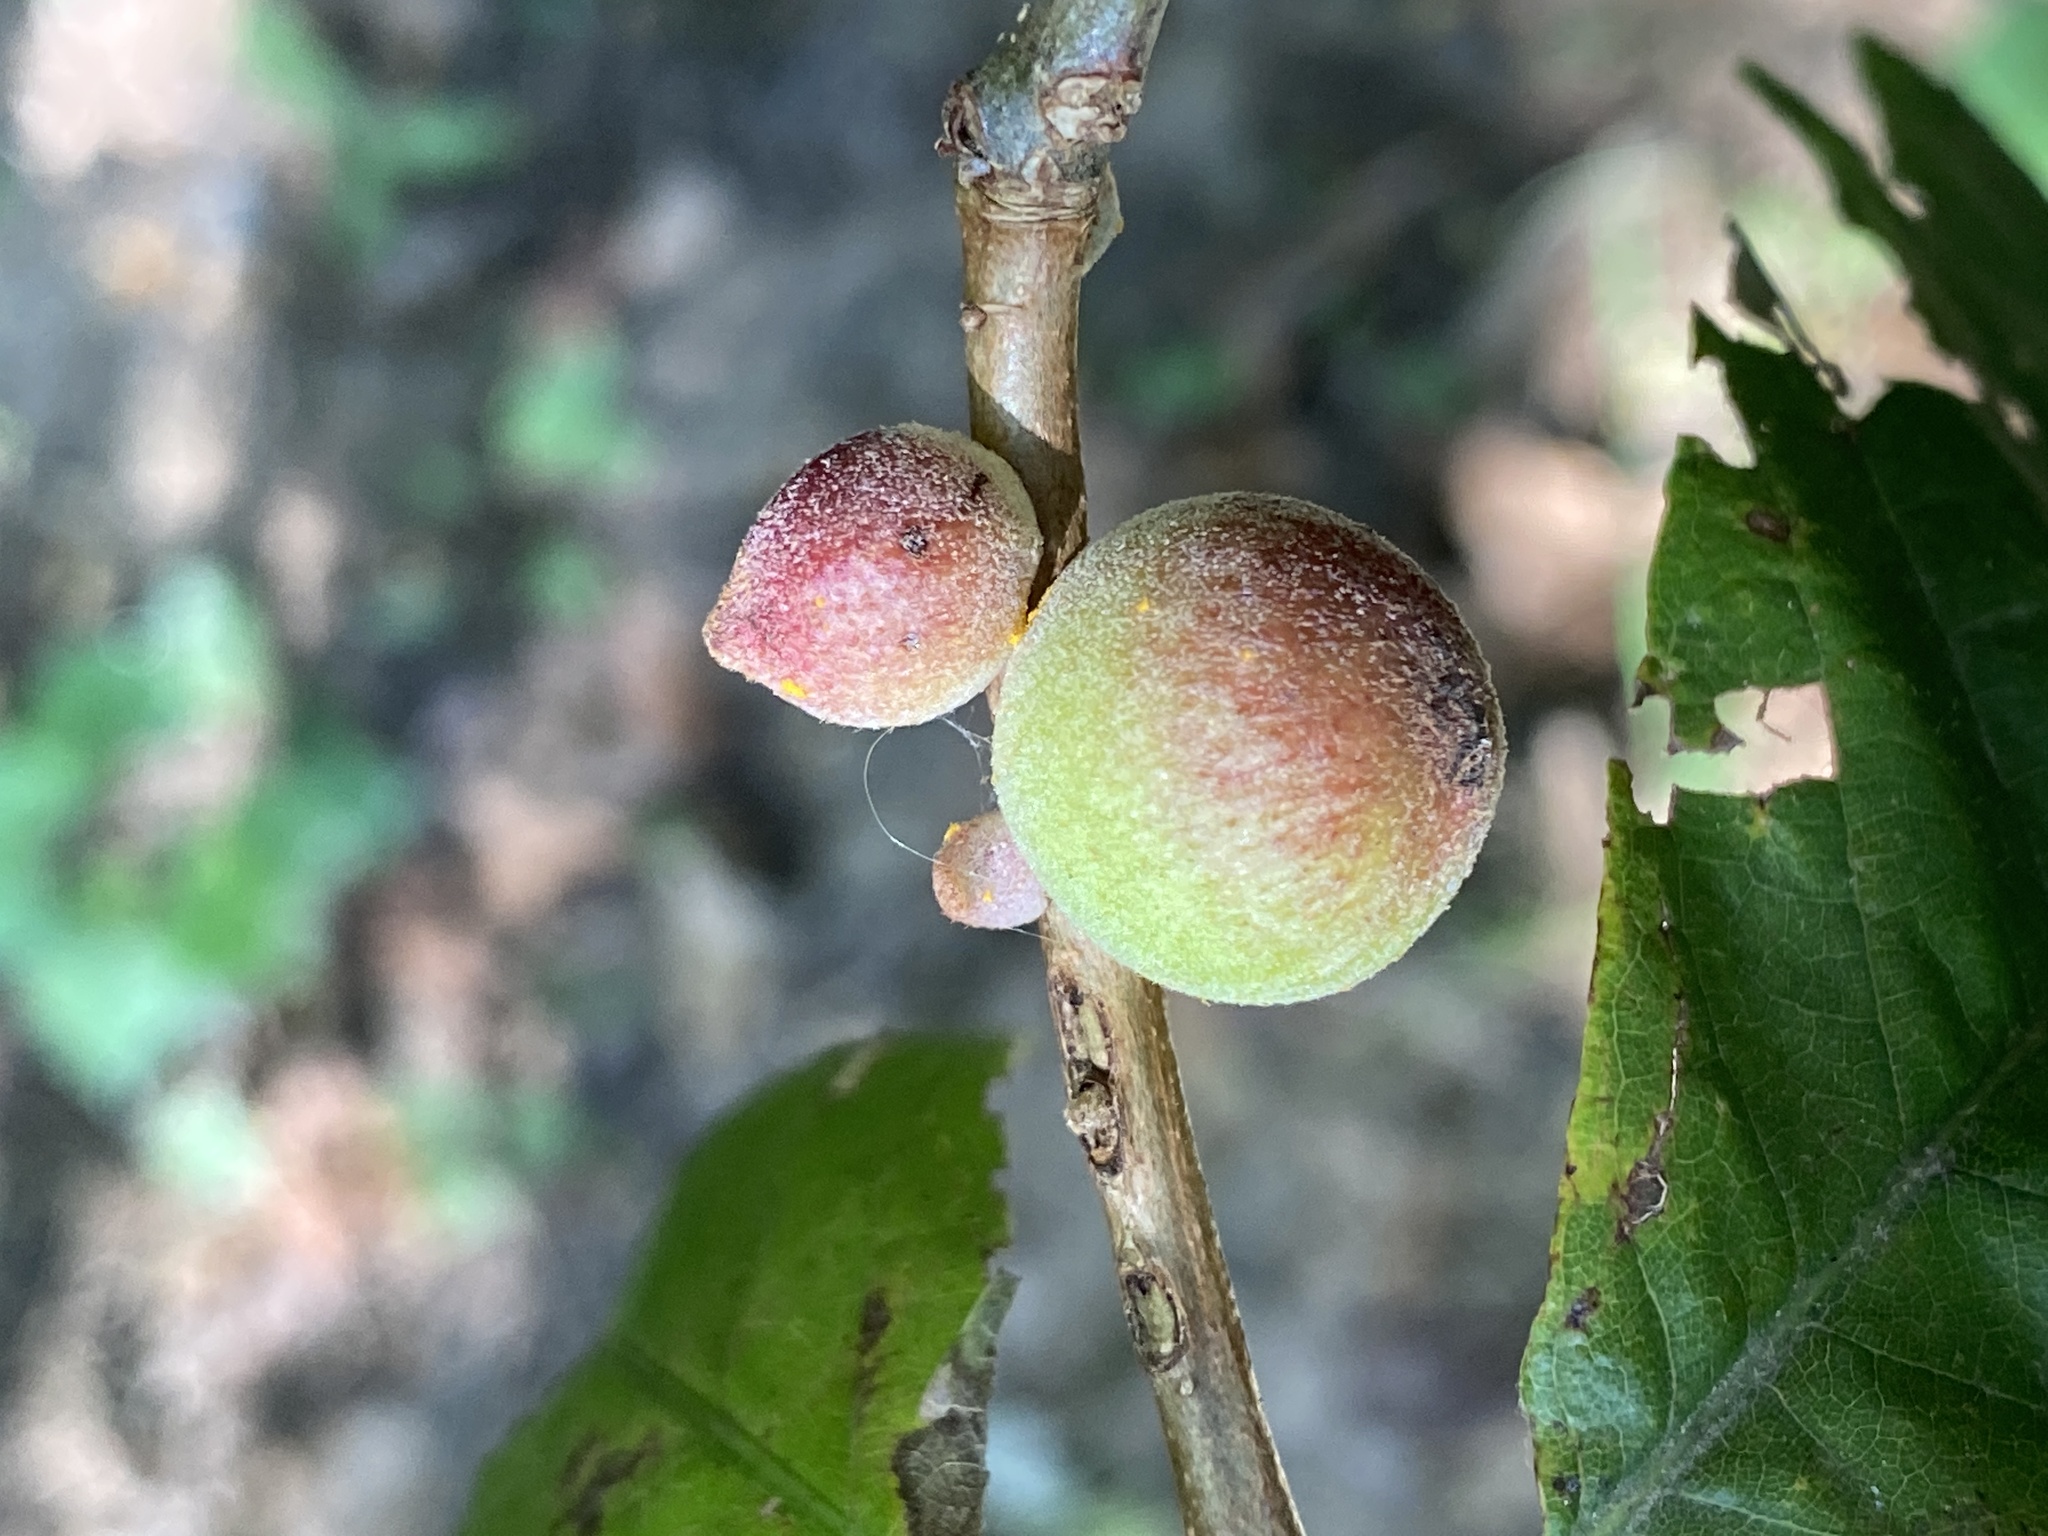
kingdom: Animalia
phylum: Arthropoda
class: Insecta
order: Hymenoptera
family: Cynipidae
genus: Disholcaspis
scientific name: Disholcaspis
